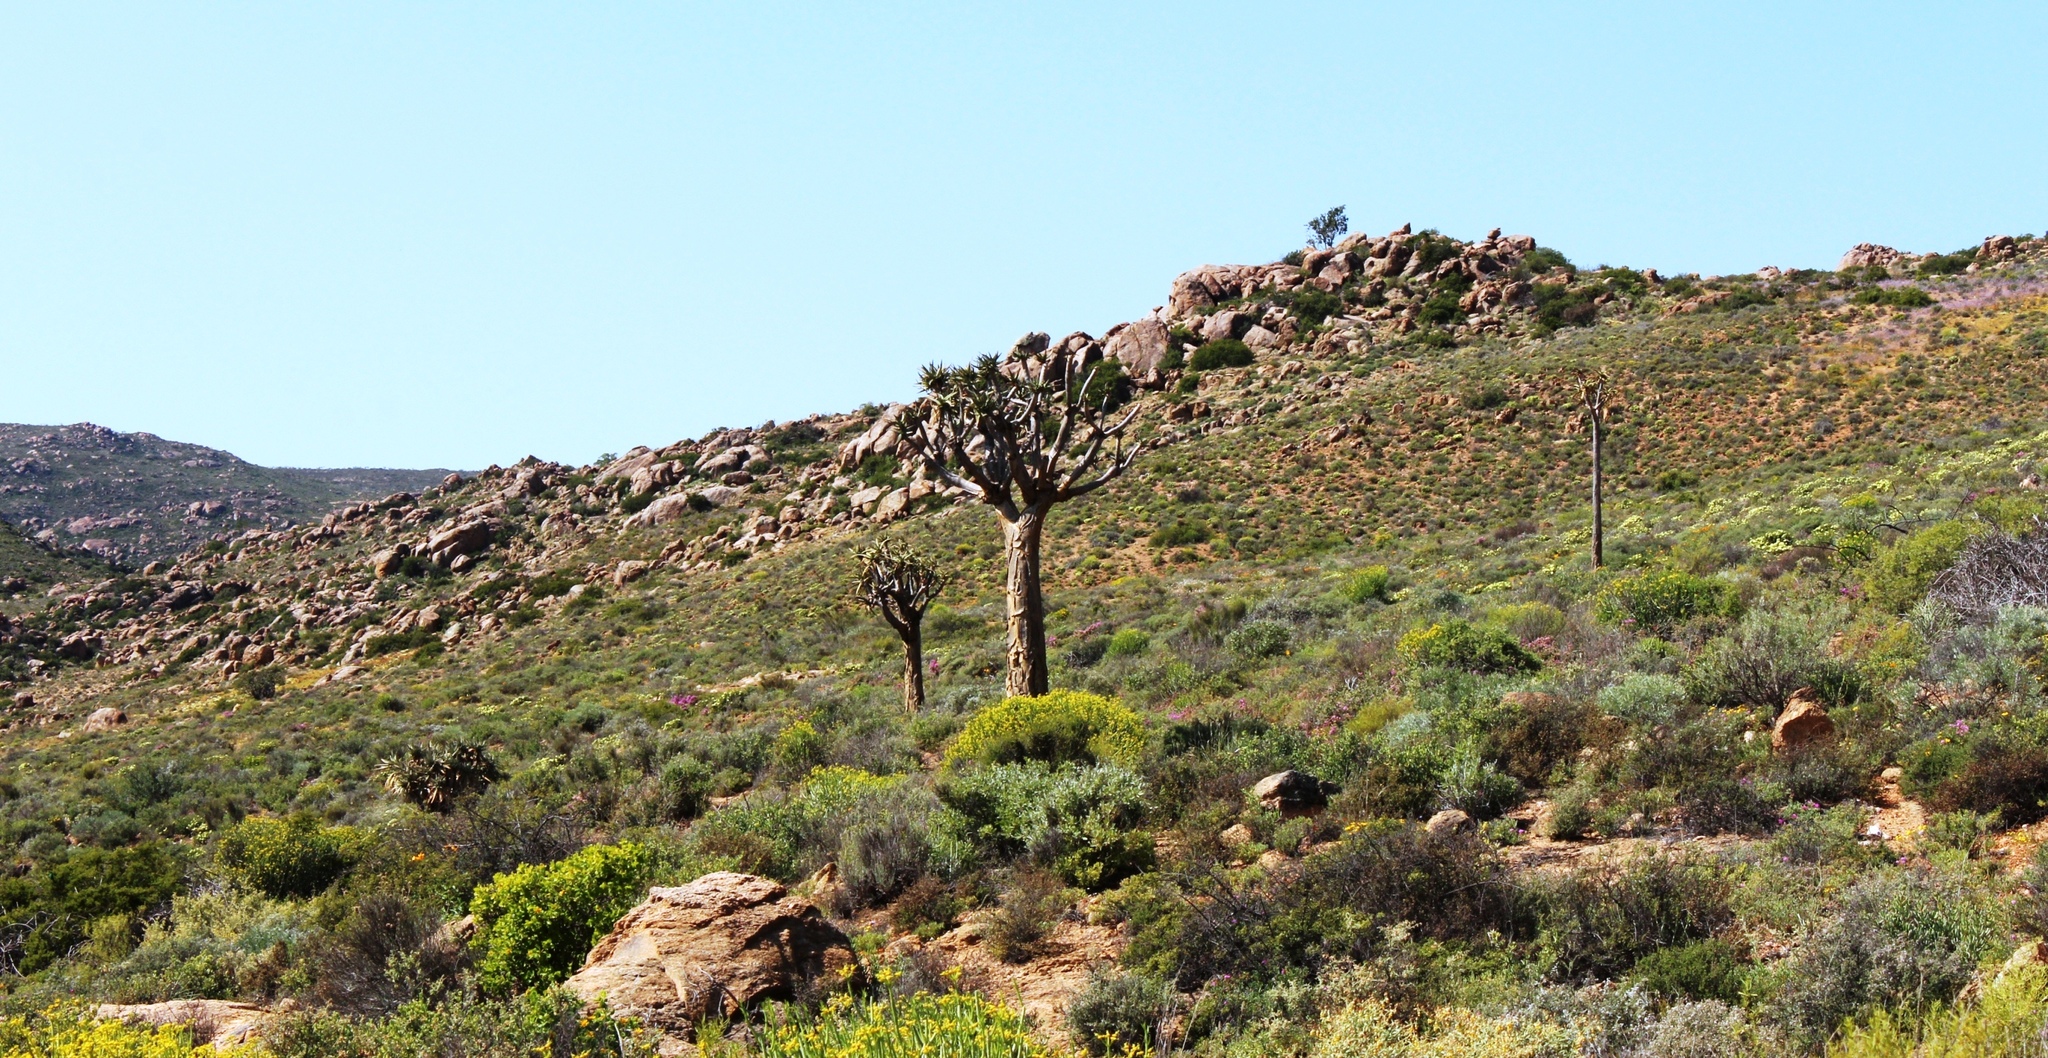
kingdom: Plantae
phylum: Tracheophyta
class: Liliopsida
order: Asparagales
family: Asphodelaceae
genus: Aloidendron
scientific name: Aloidendron dichotomum
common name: Quiver tree
